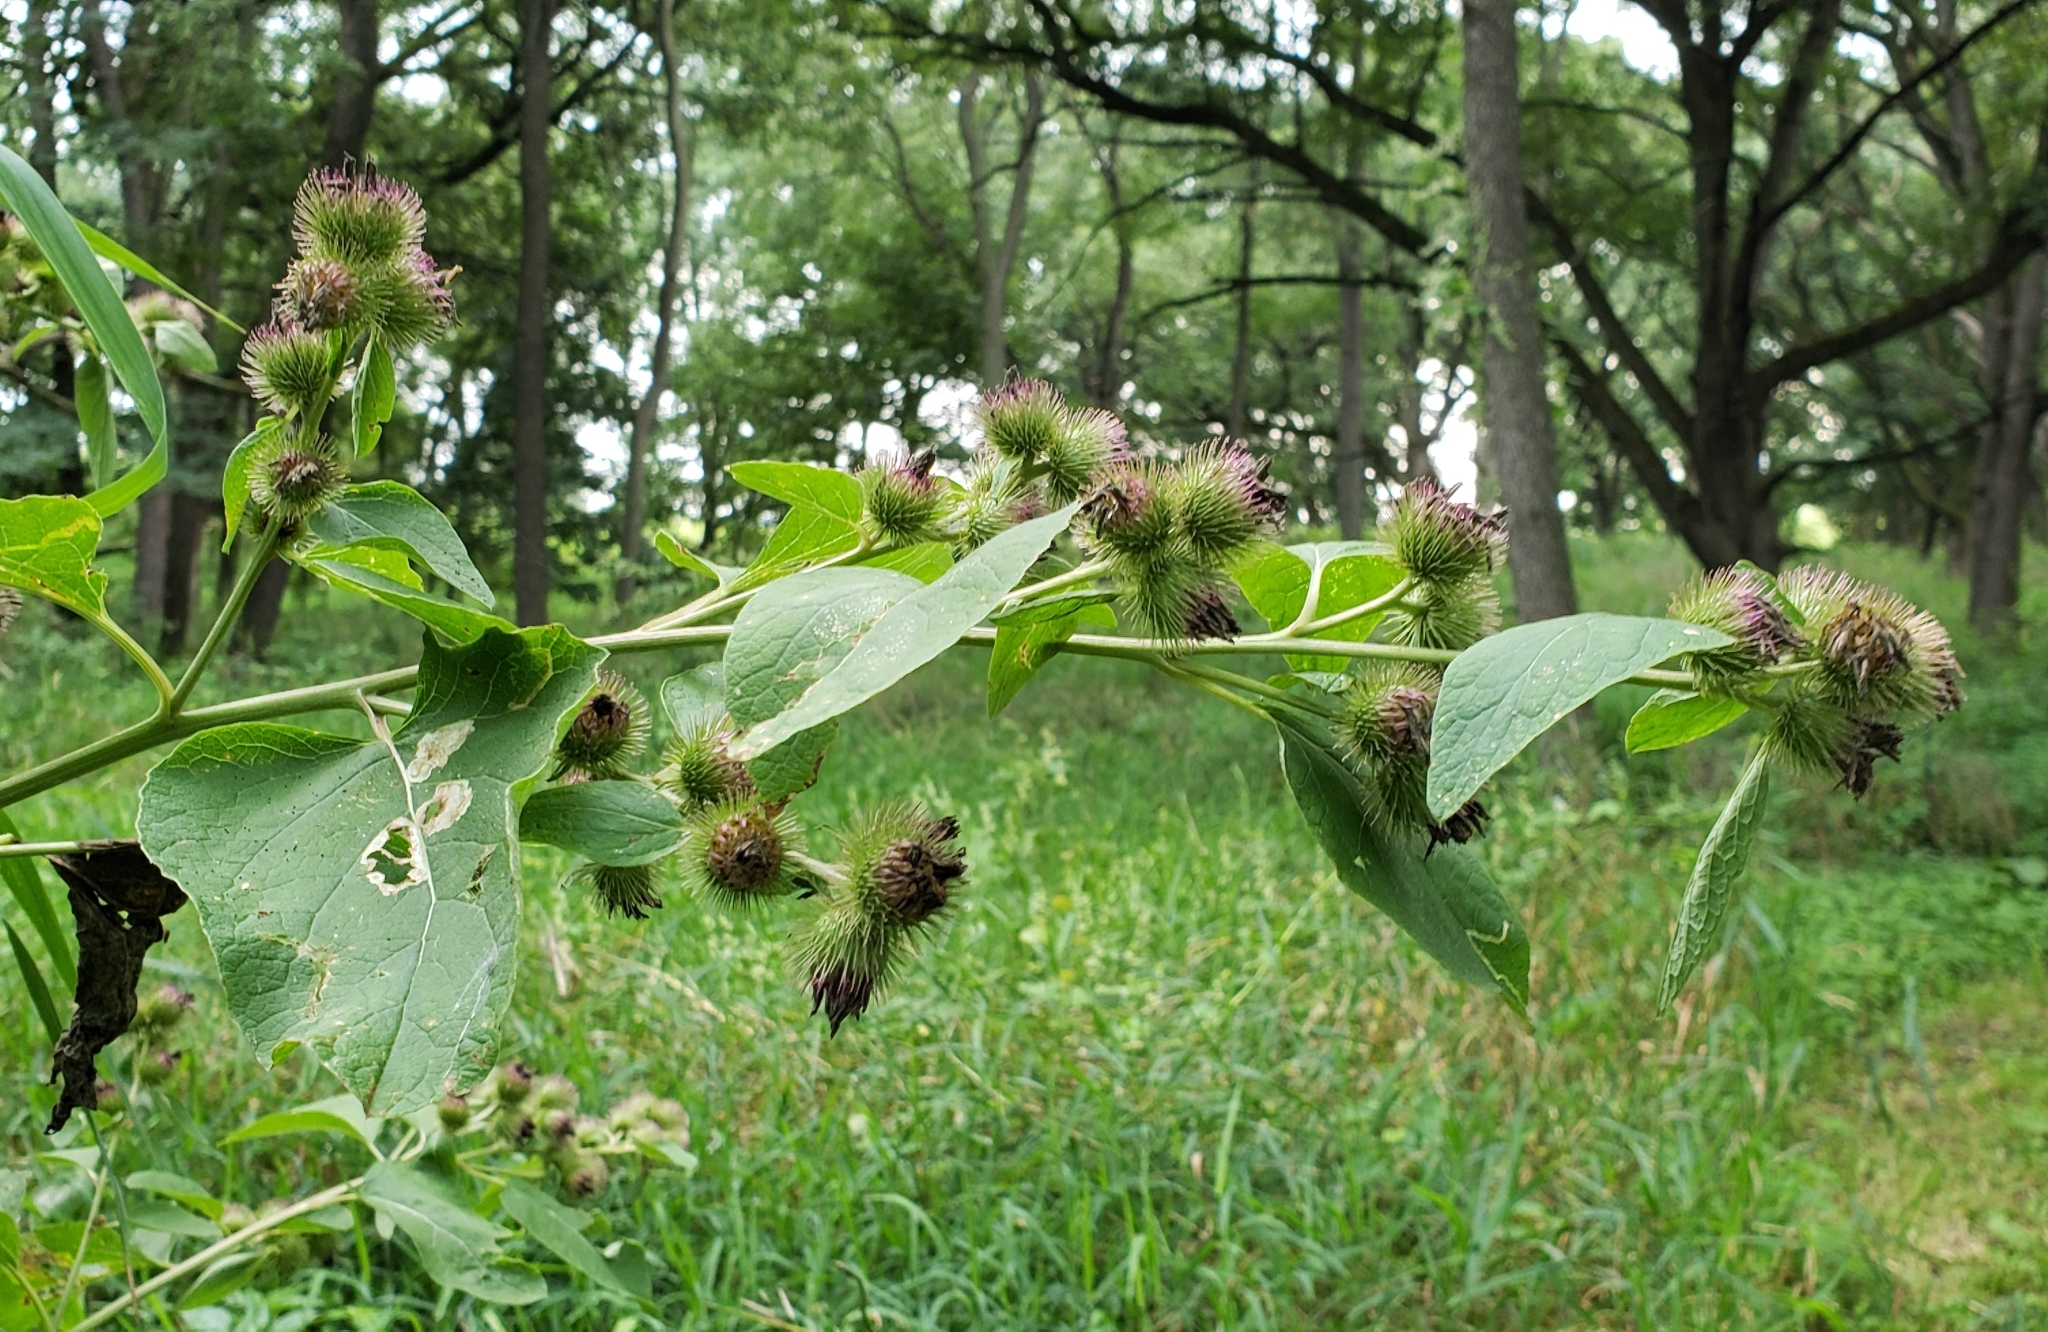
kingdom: Plantae
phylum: Tracheophyta
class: Magnoliopsida
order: Asterales
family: Asteraceae
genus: Arctium
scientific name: Arctium minus
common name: Lesser burdock
